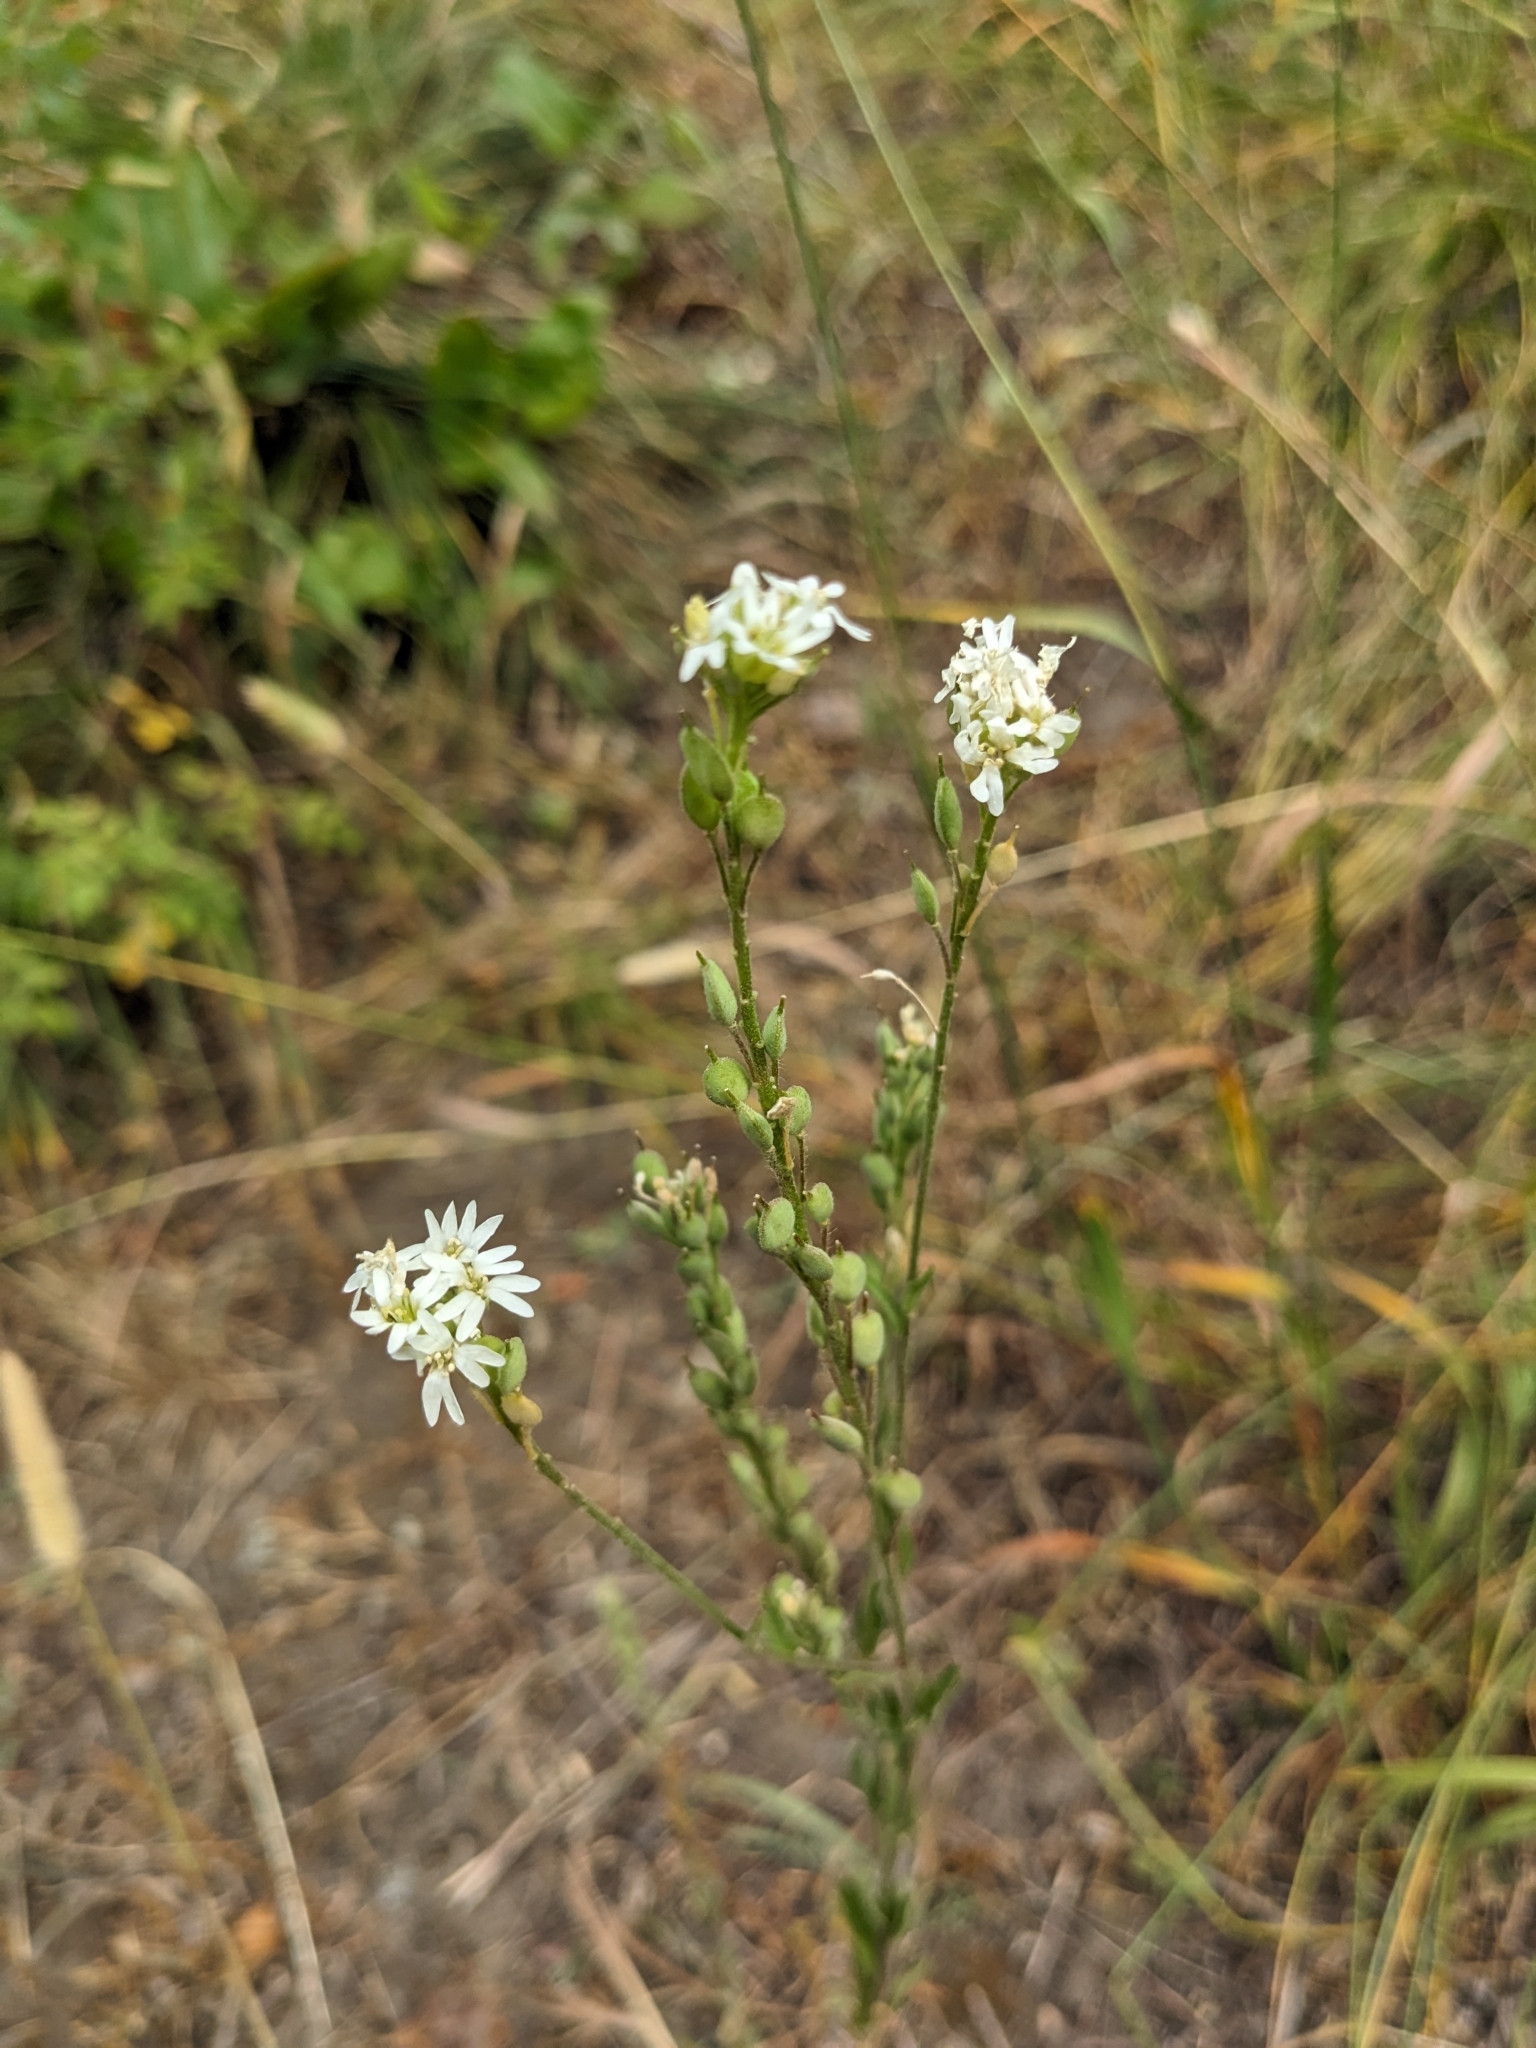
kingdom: Plantae
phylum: Tracheophyta
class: Magnoliopsida
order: Brassicales
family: Brassicaceae
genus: Berteroa
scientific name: Berteroa incana
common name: Hoary alison
